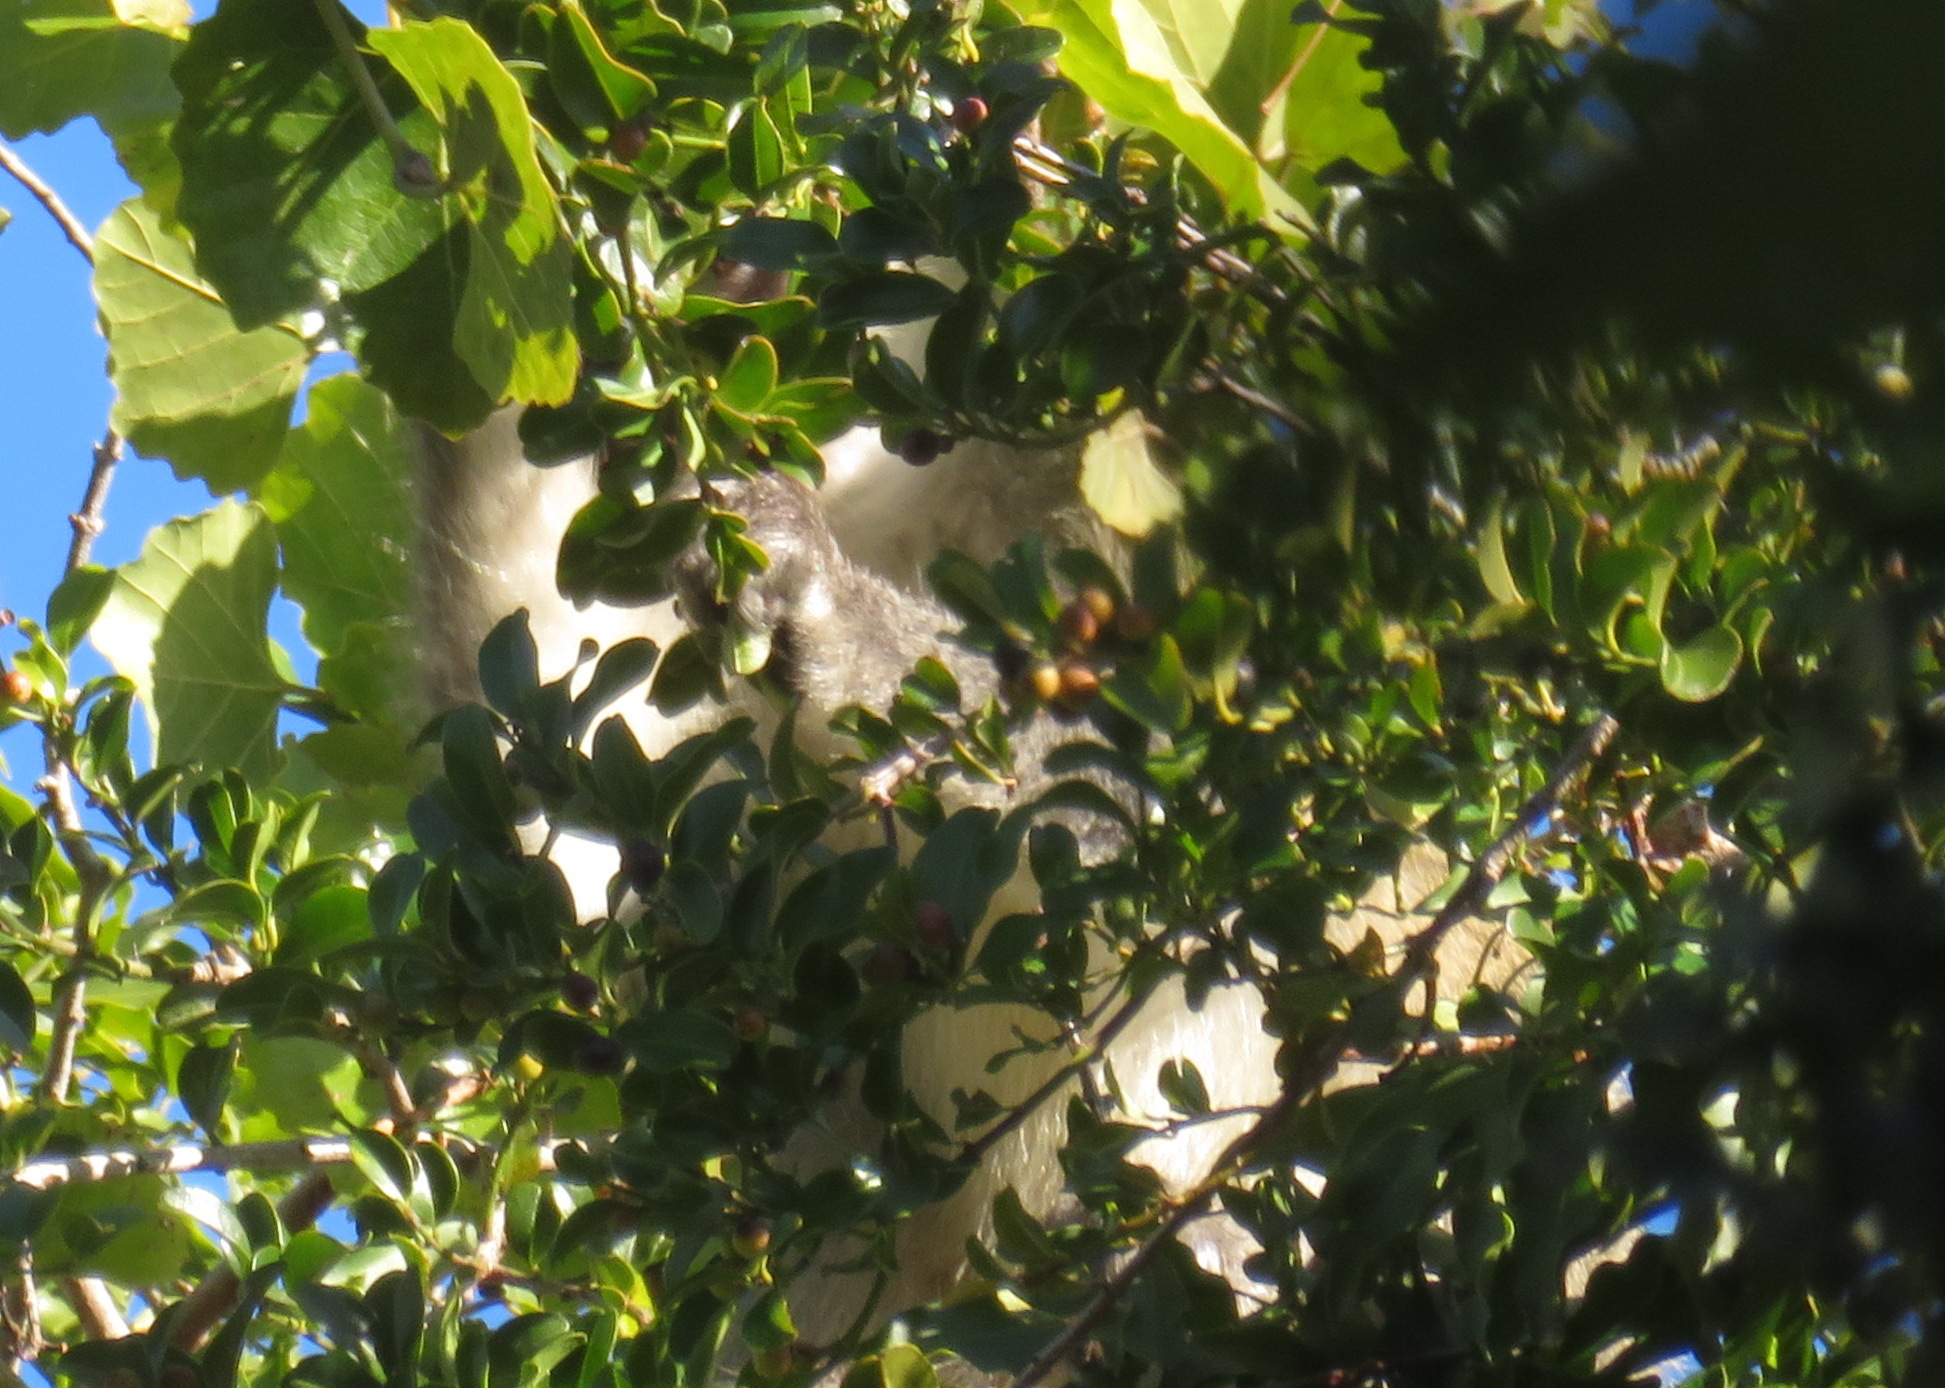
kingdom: Animalia
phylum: Chordata
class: Mammalia
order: Primates
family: Cercopithecidae
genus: Chlorocebus
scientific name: Chlorocebus pygerythrus
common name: Vervet monkey
